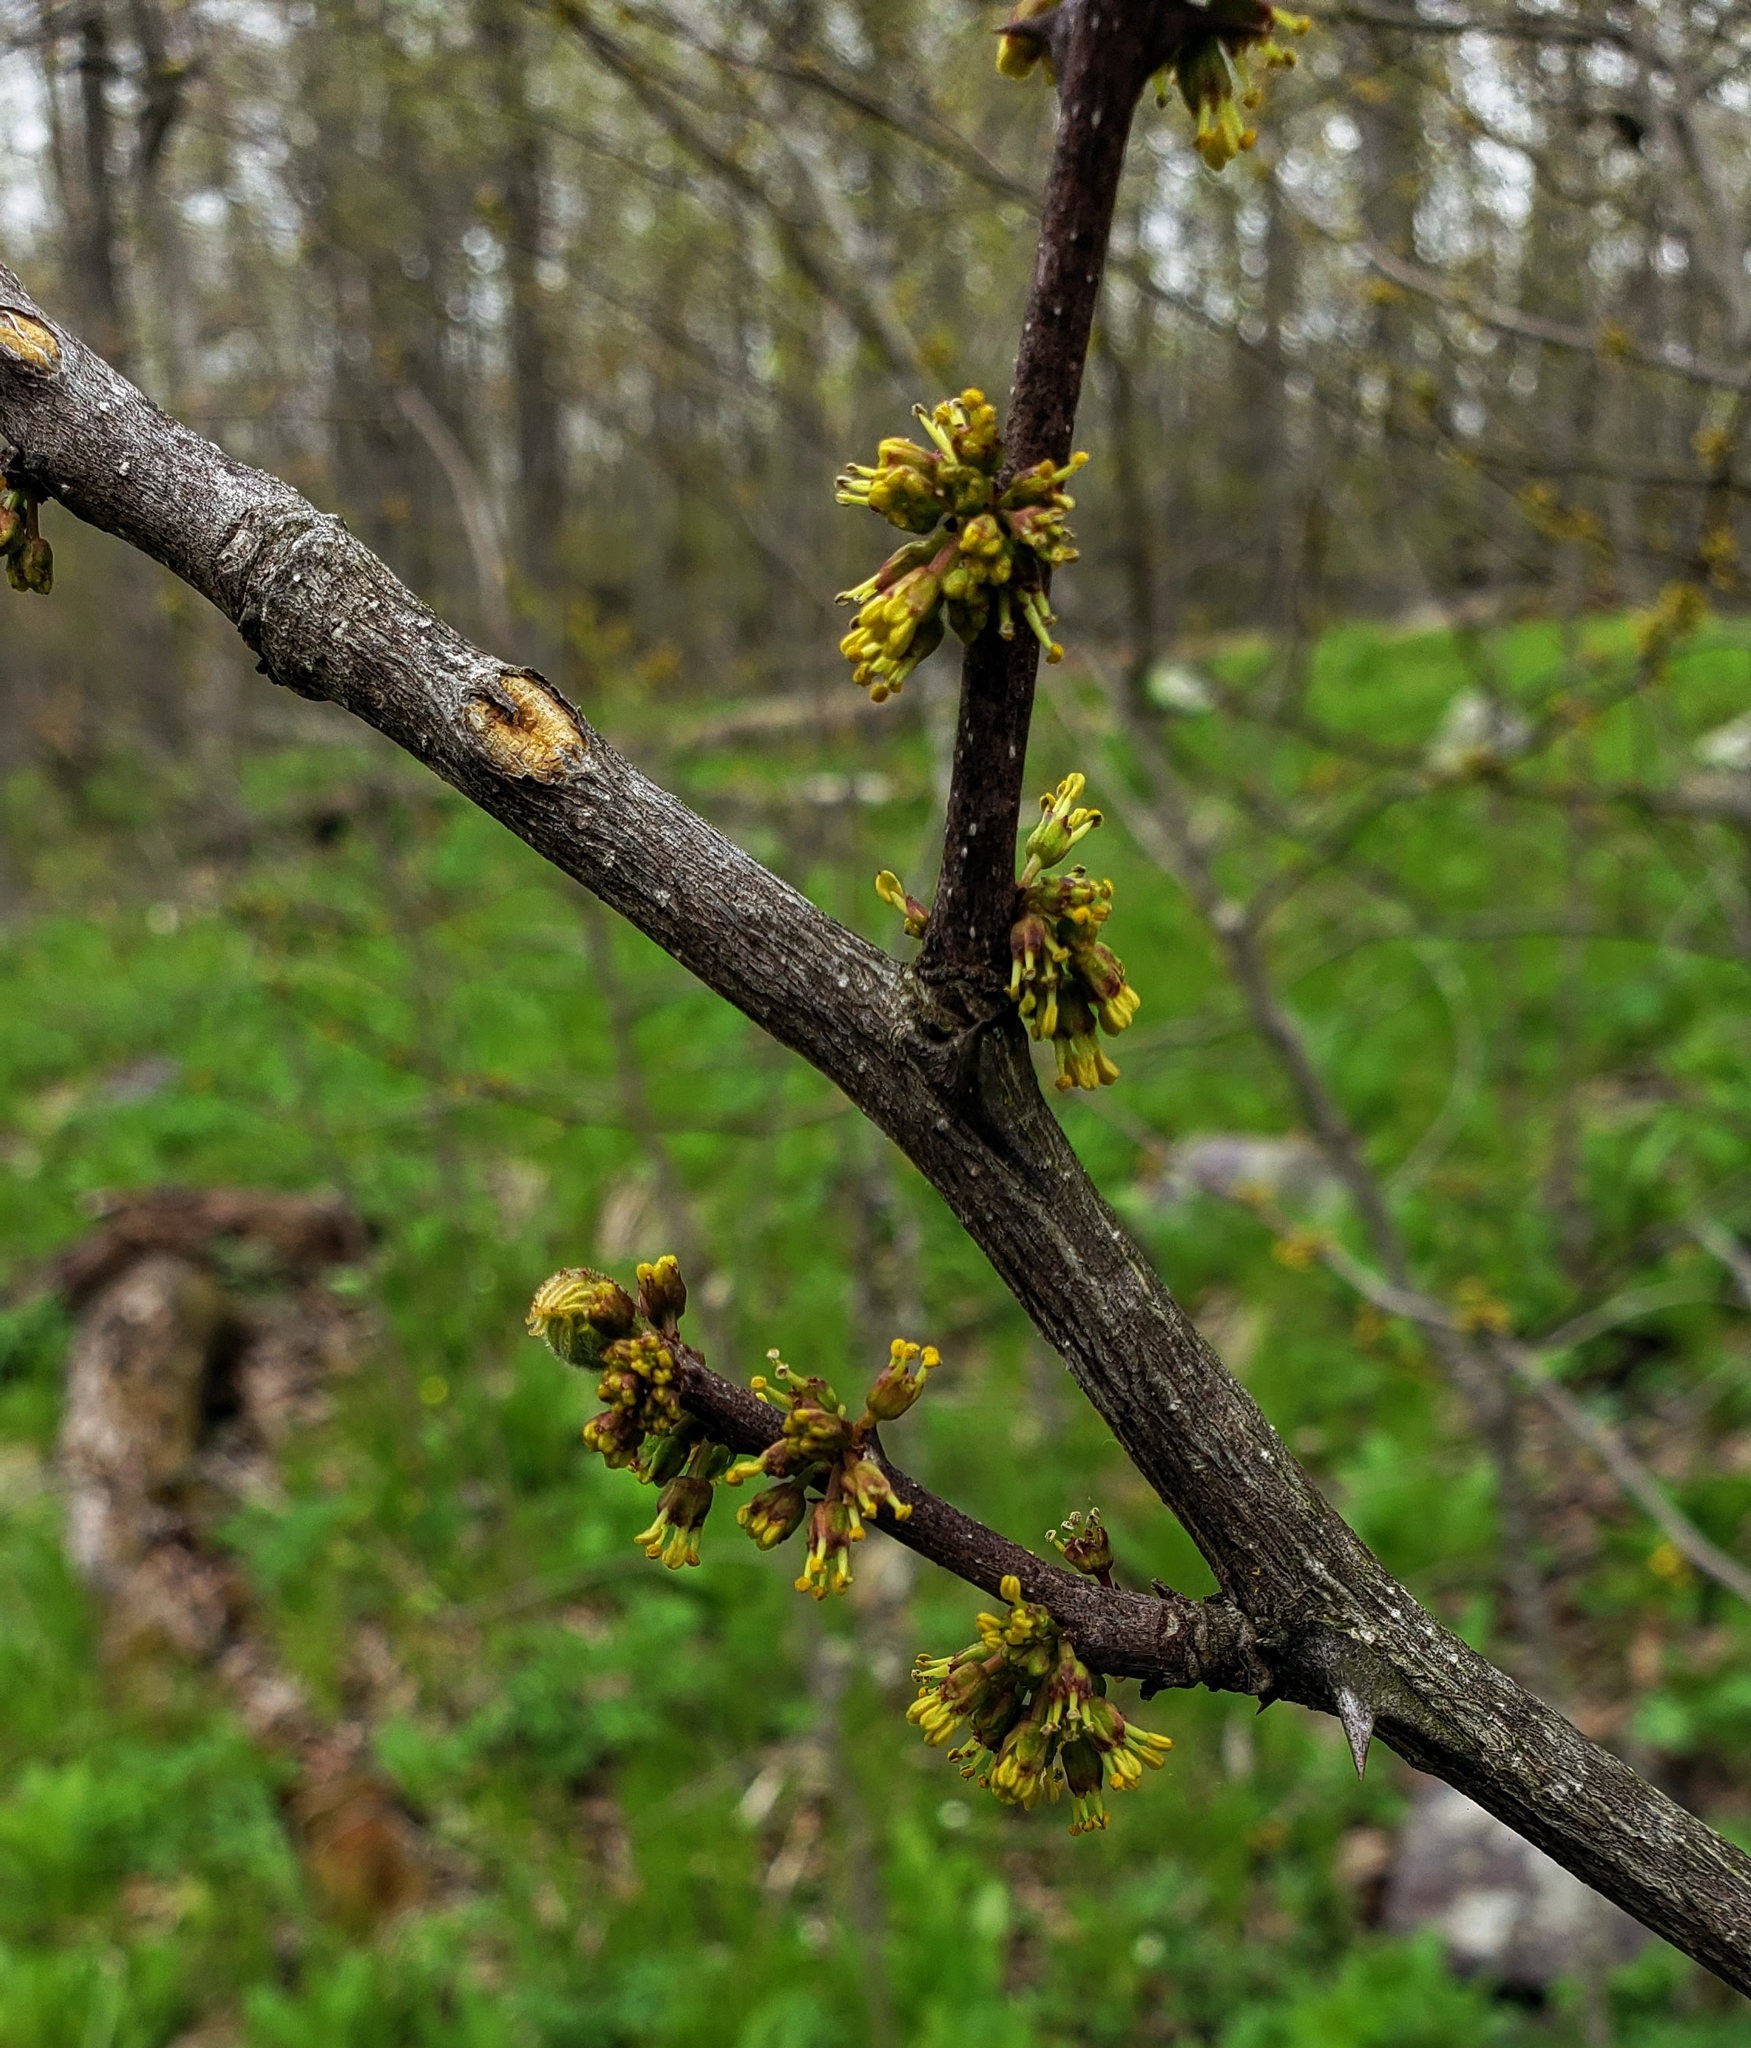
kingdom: Plantae
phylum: Tracheophyta
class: Magnoliopsida
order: Sapindales
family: Rutaceae
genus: Zanthoxylum
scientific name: Zanthoxylum americanum
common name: Northern prickly-ash
